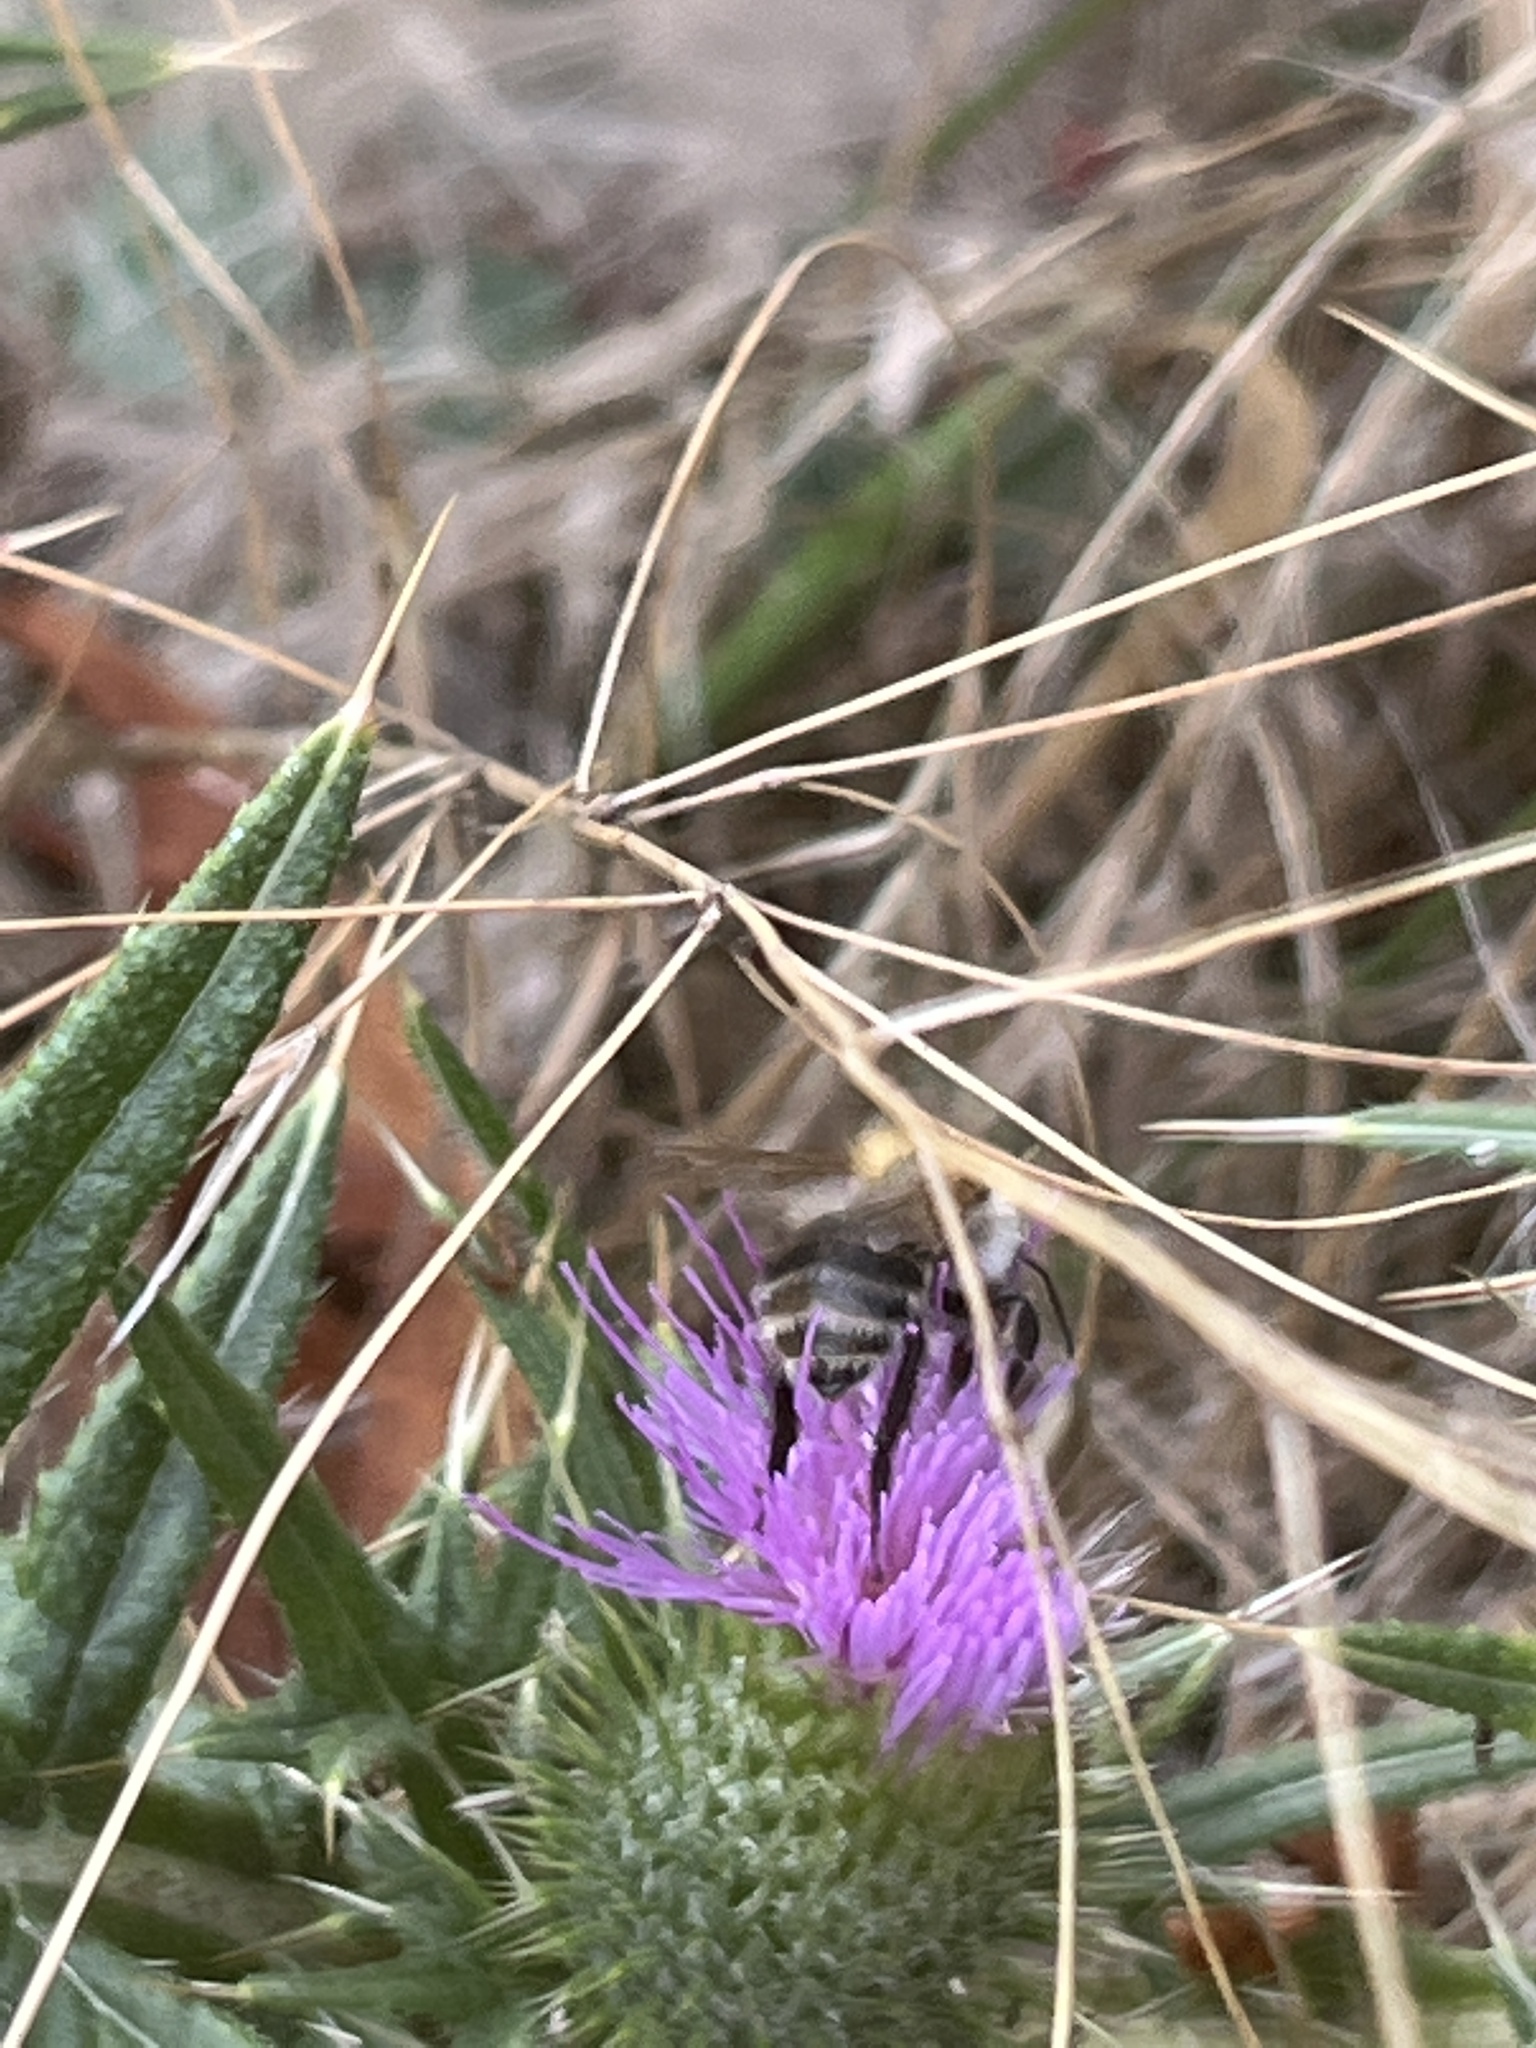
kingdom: Animalia
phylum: Arthropoda
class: Insecta
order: Hymenoptera
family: Apidae
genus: Bombus
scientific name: Bombus pascuorum
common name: Common carder bee
